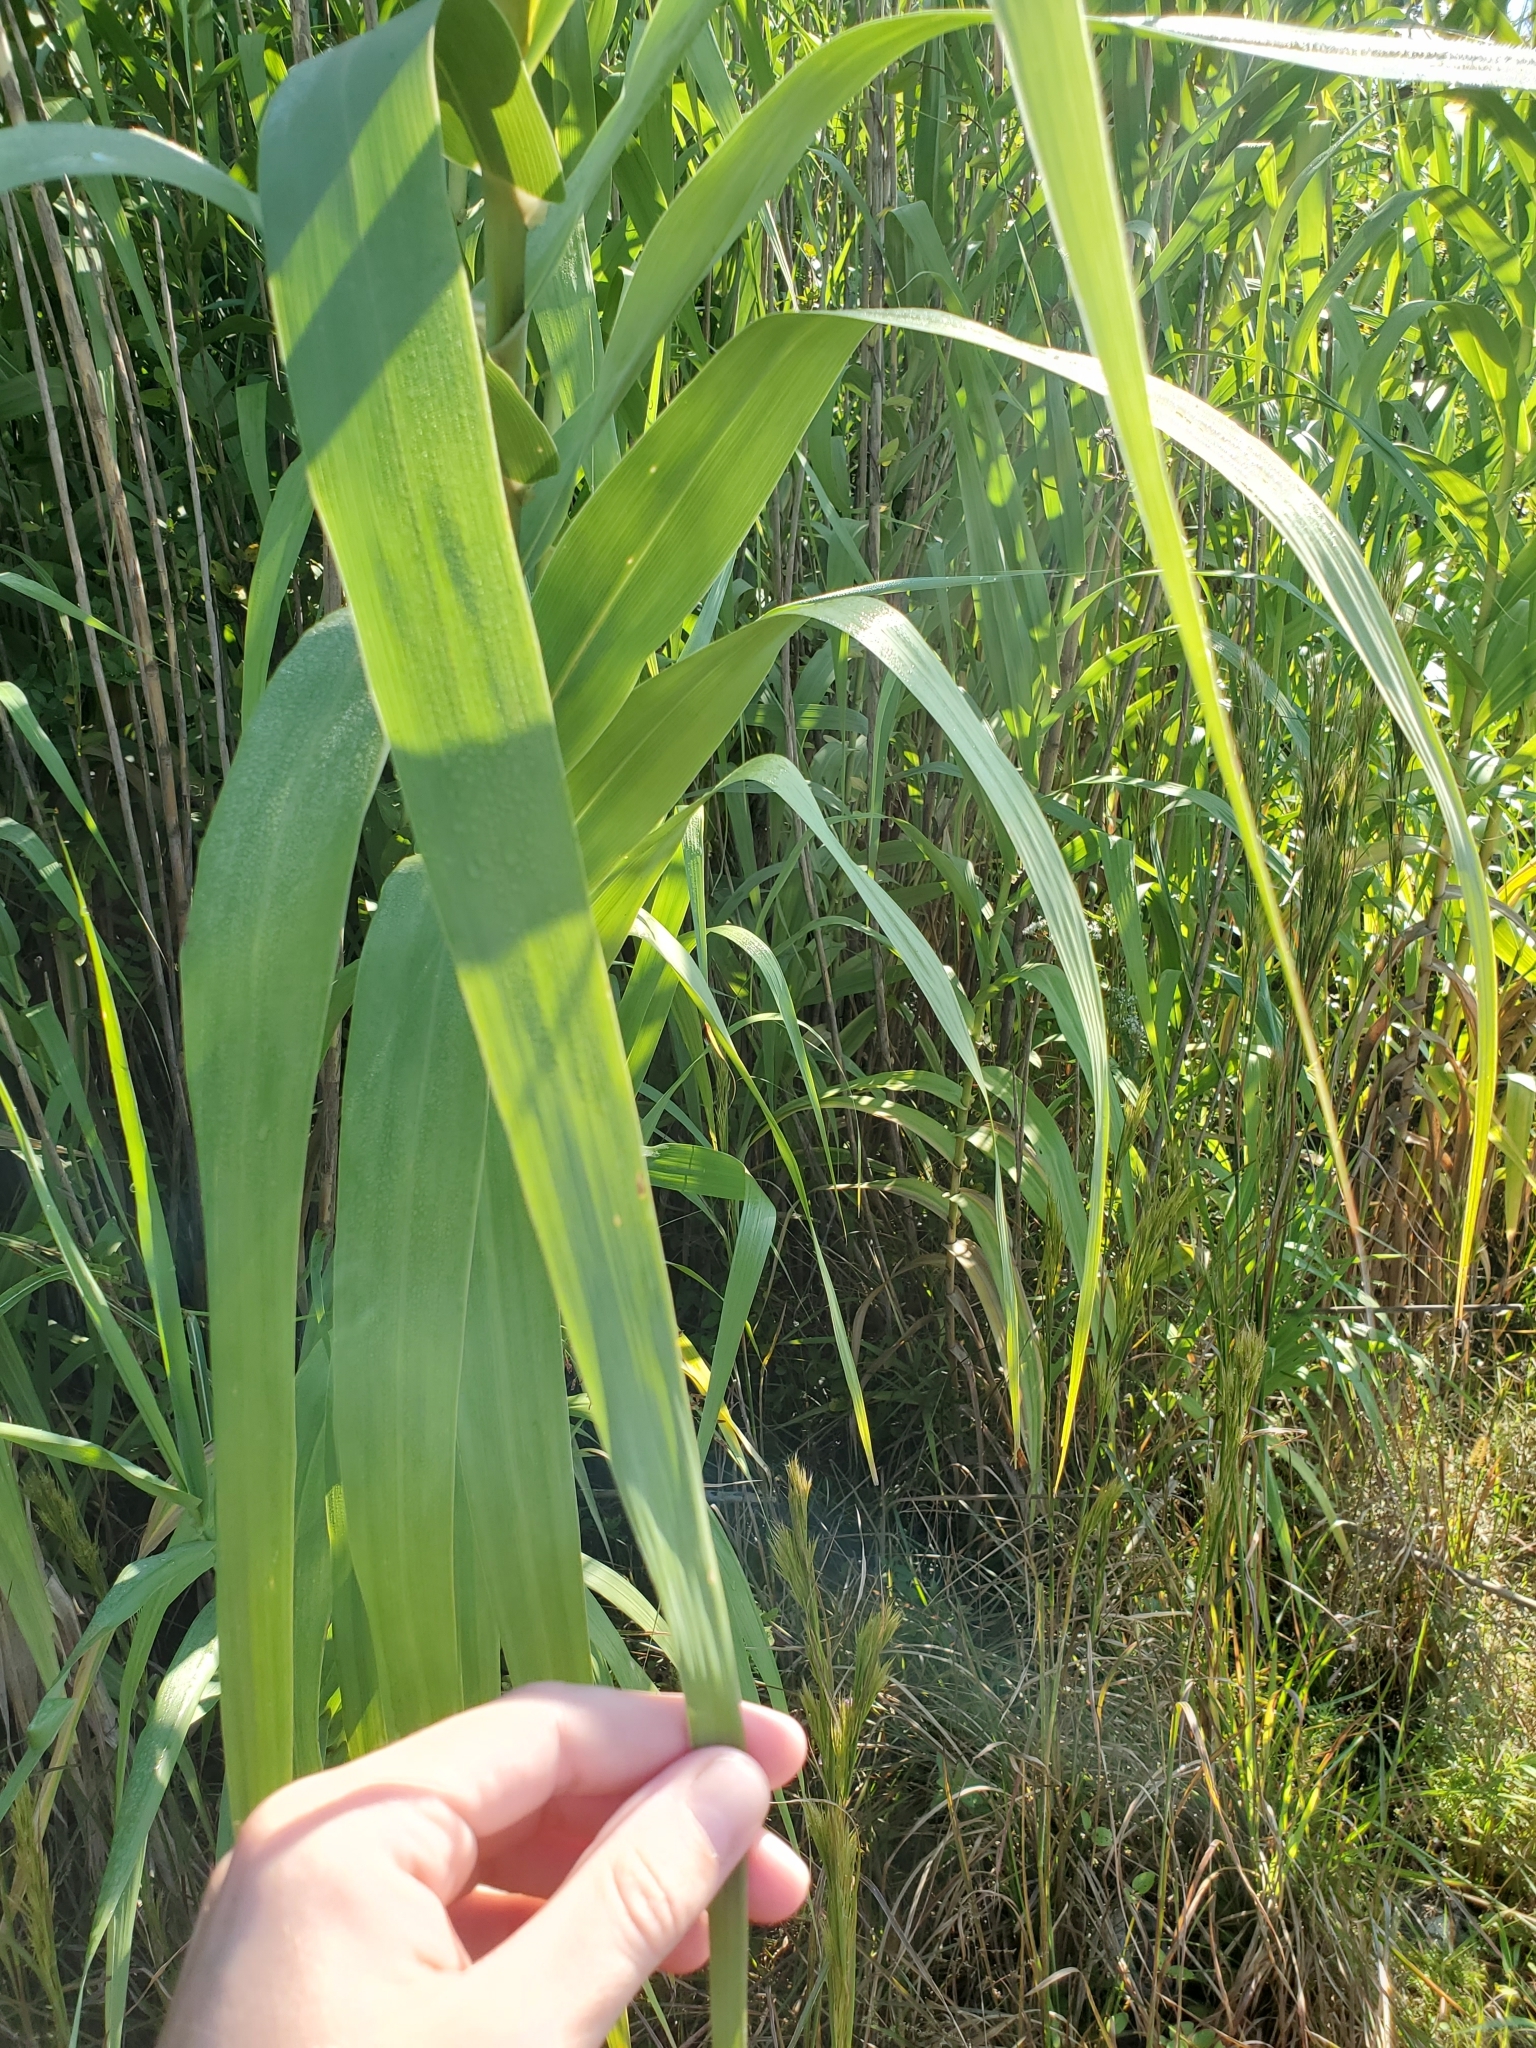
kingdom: Plantae
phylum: Tracheophyta
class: Liliopsida
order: Poales
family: Poaceae
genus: Arundo
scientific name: Arundo donax
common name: Giant reed
